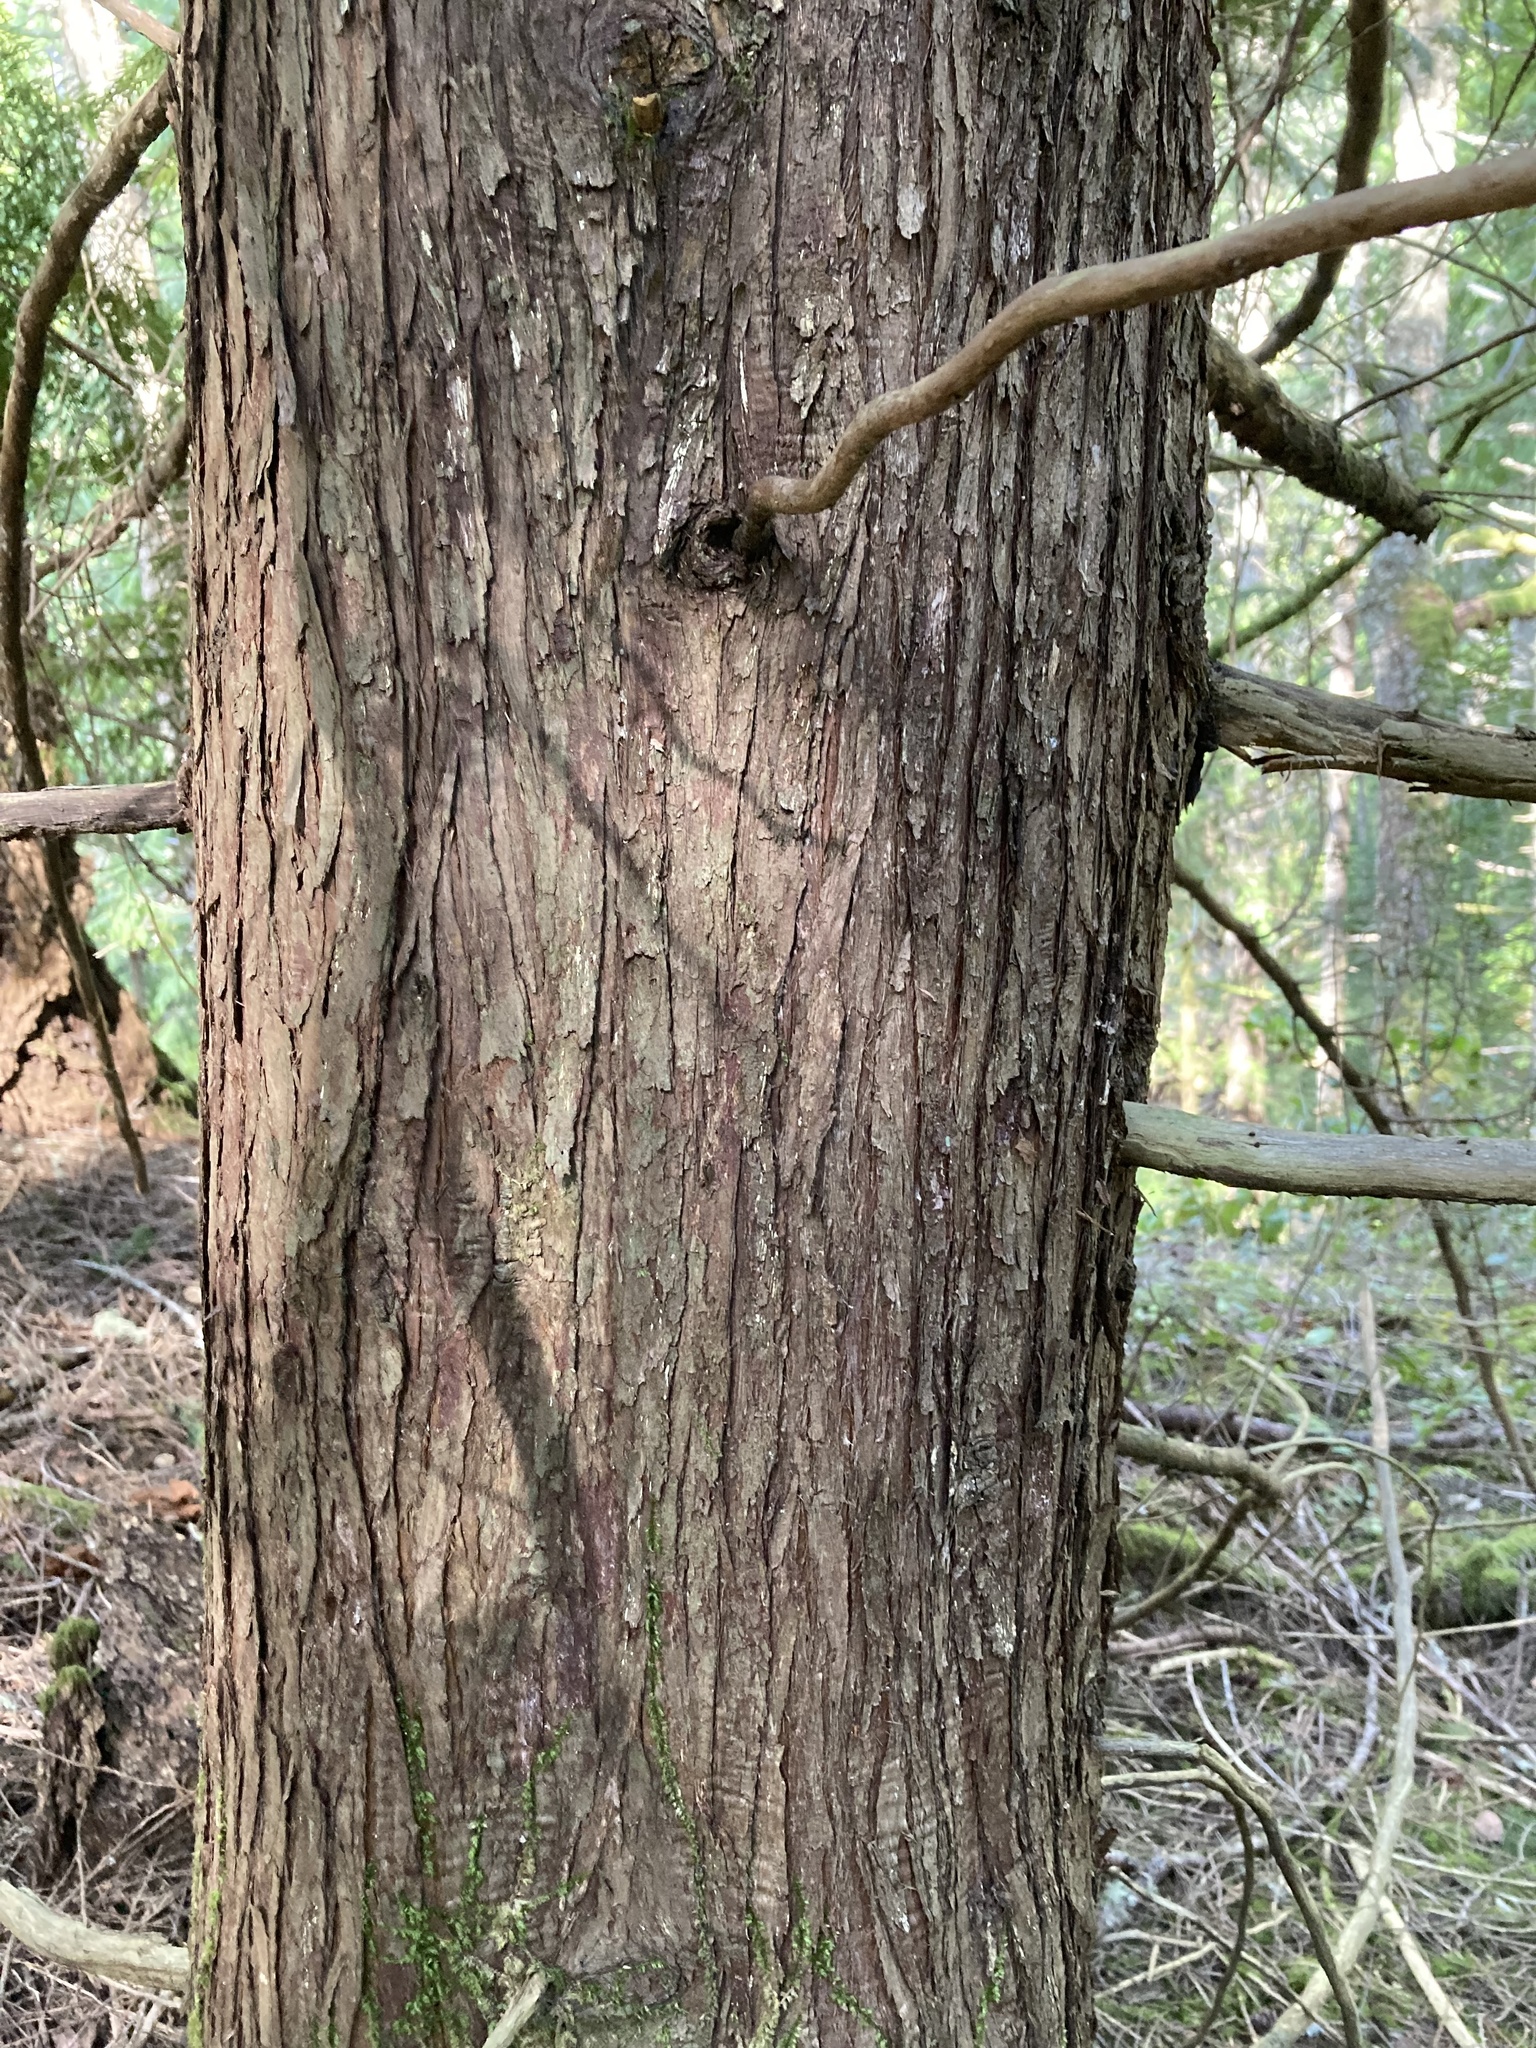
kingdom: Plantae
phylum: Tracheophyta
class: Pinopsida
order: Pinales
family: Cupressaceae
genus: Thuja
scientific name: Thuja plicata
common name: Western red-cedar
